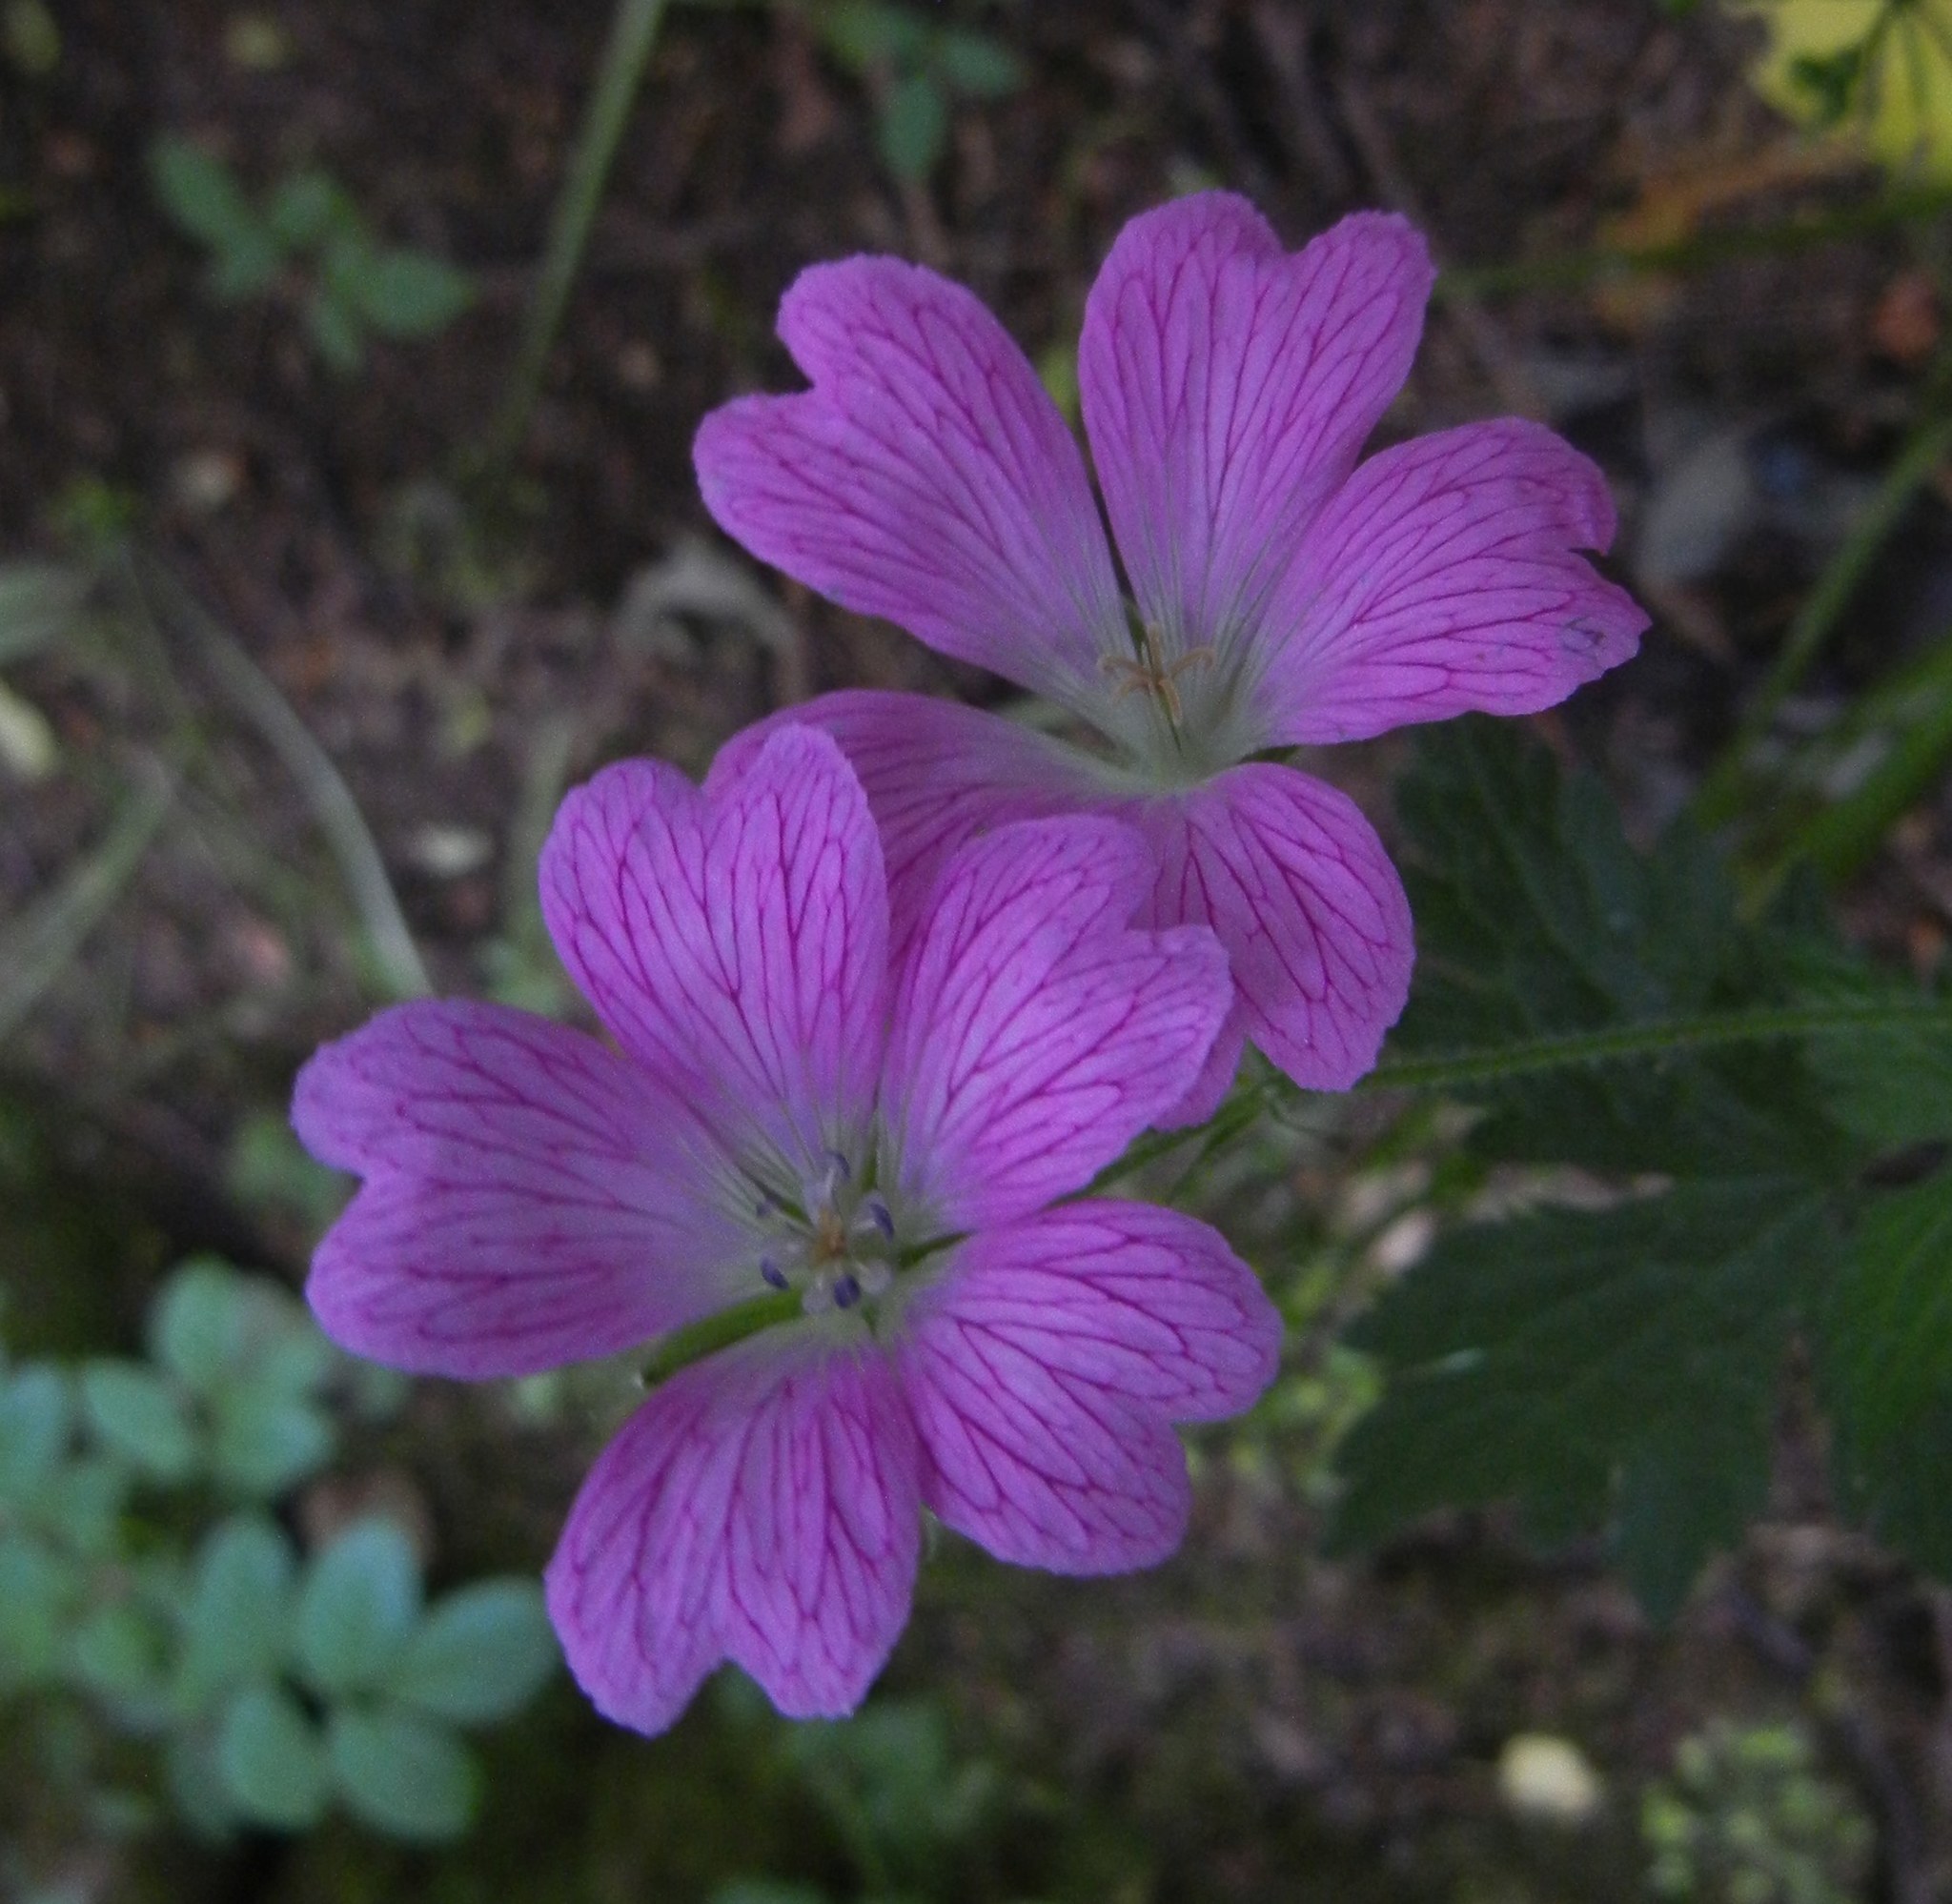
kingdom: Plantae
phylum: Tracheophyta
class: Magnoliopsida
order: Geraniales
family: Geraniaceae
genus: Geranium
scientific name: Geranium oxonianum
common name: Druce's crane's-bill
